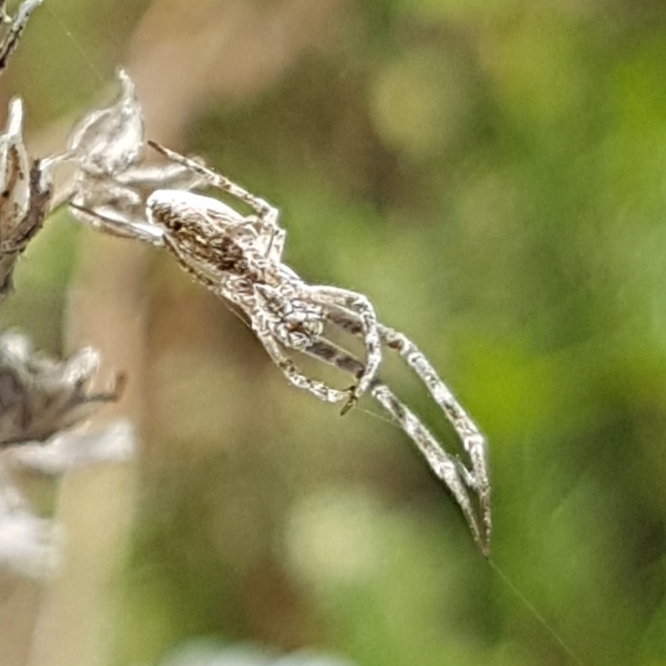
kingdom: Animalia
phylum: Arthropoda
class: Arachnida
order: Araneae
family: Uloboridae
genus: Uloborus
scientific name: Uloborus walckenaerius
